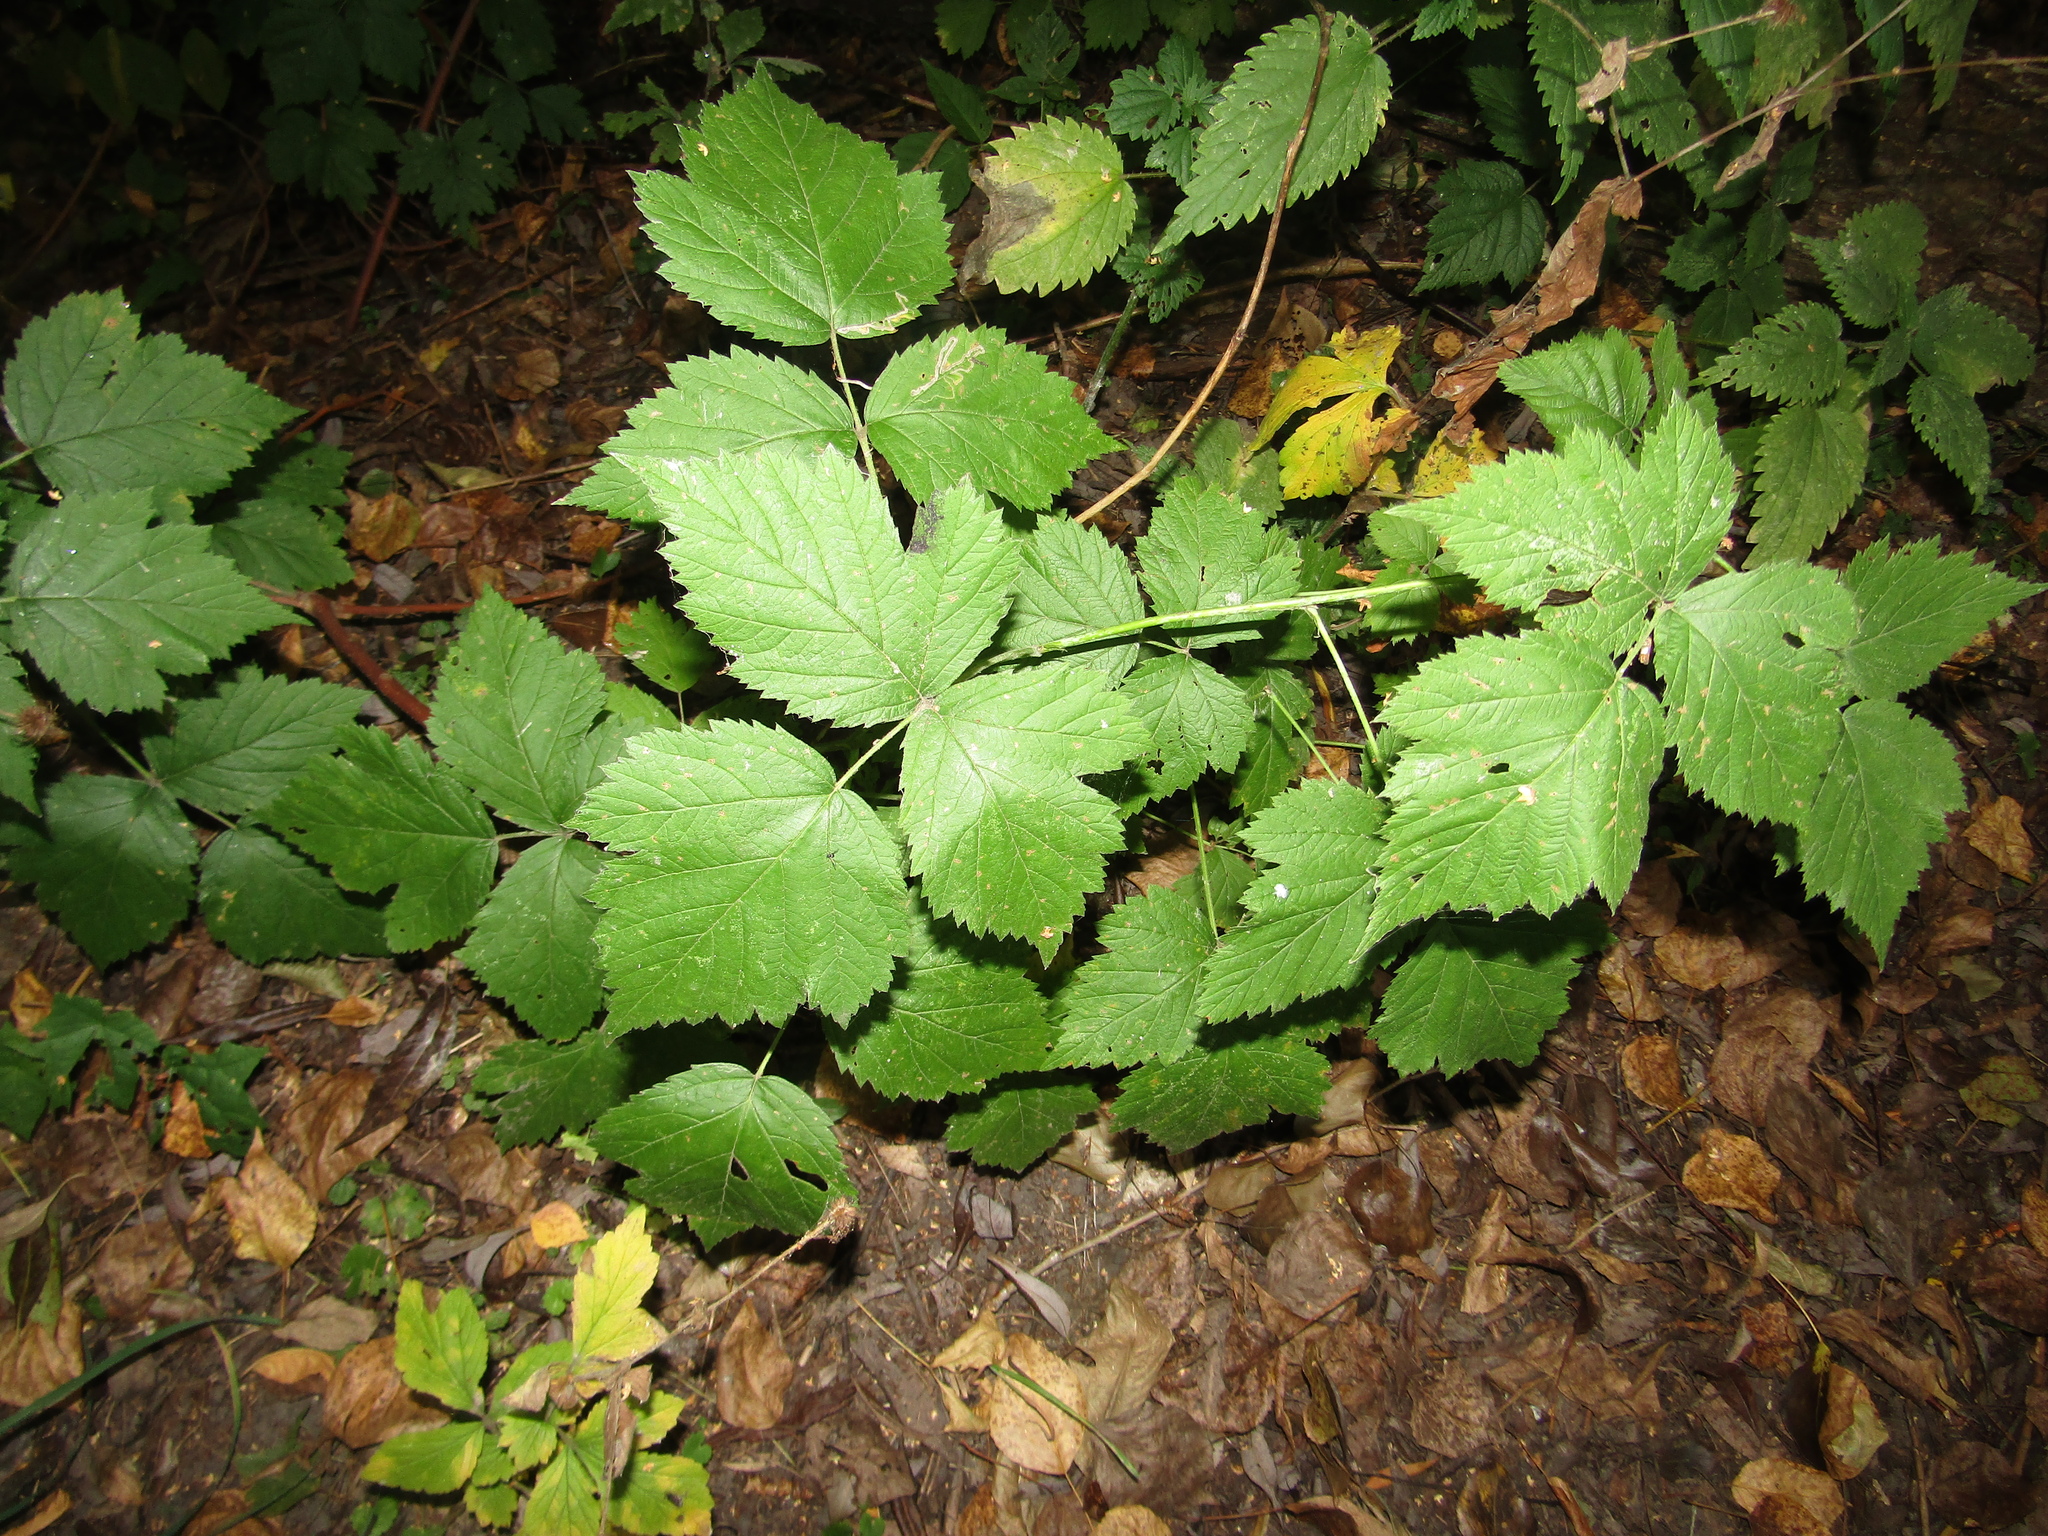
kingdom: Plantae
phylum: Tracheophyta
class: Magnoliopsida
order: Rosales
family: Rosaceae
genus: Rubus
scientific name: Rubus caesius
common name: Dewberry
